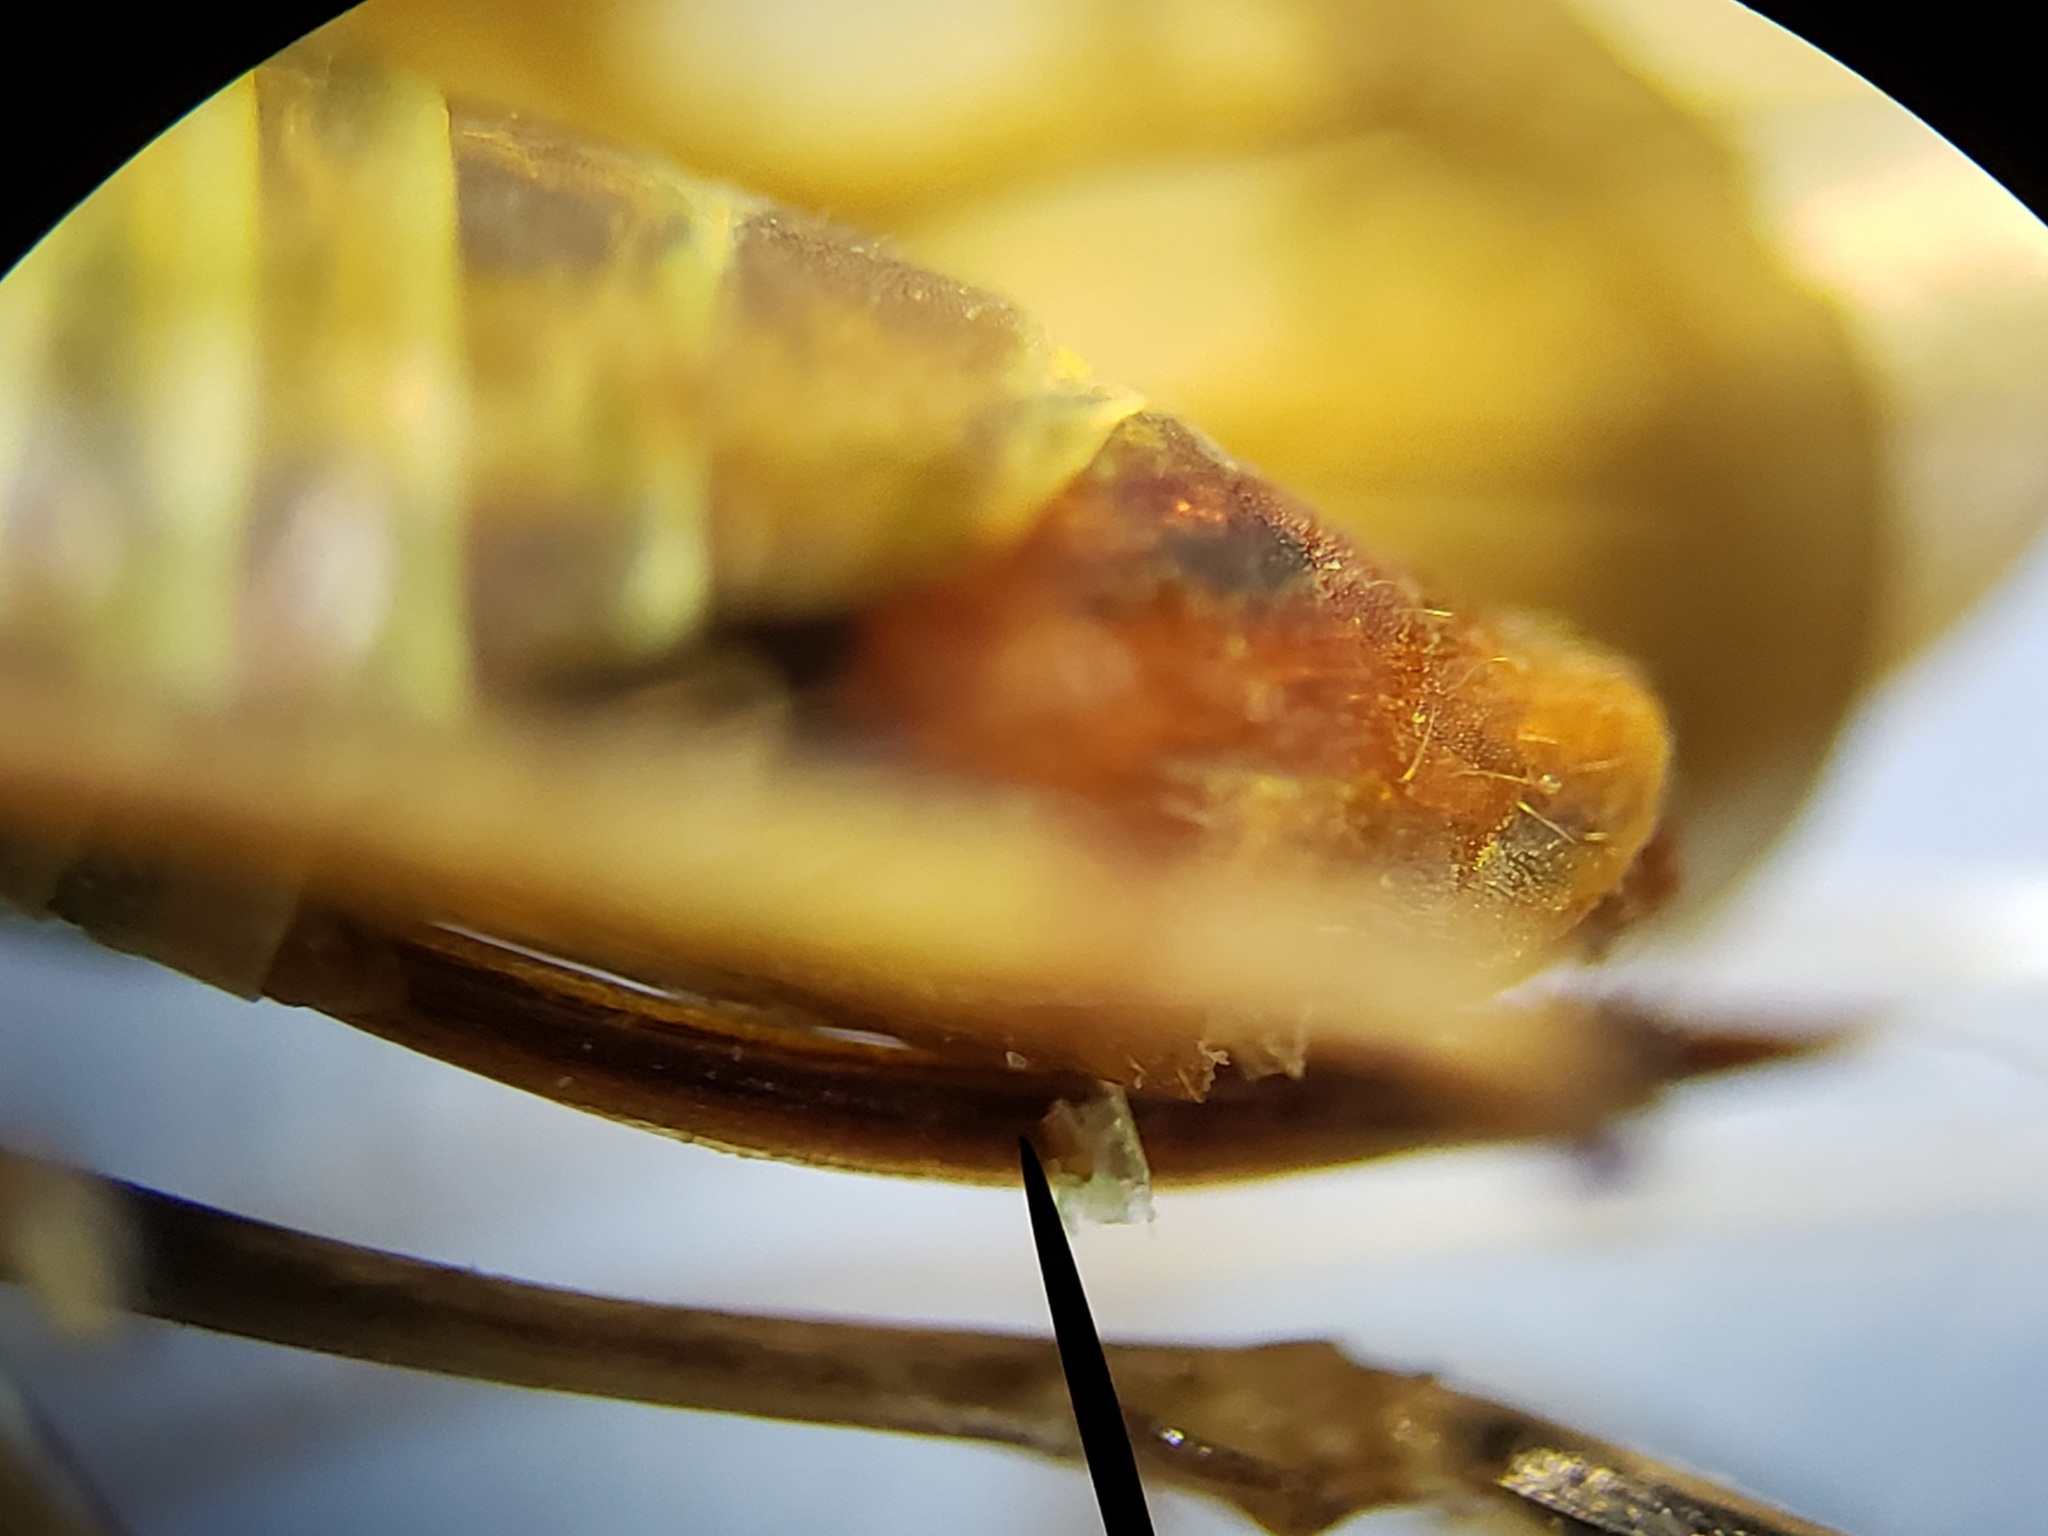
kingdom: Animalia
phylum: Arthropoda
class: Insecta
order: Hemiptera
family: Cicadellidae
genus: Jikradia
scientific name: Jikradia olitoria
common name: Coppery leafhopper
